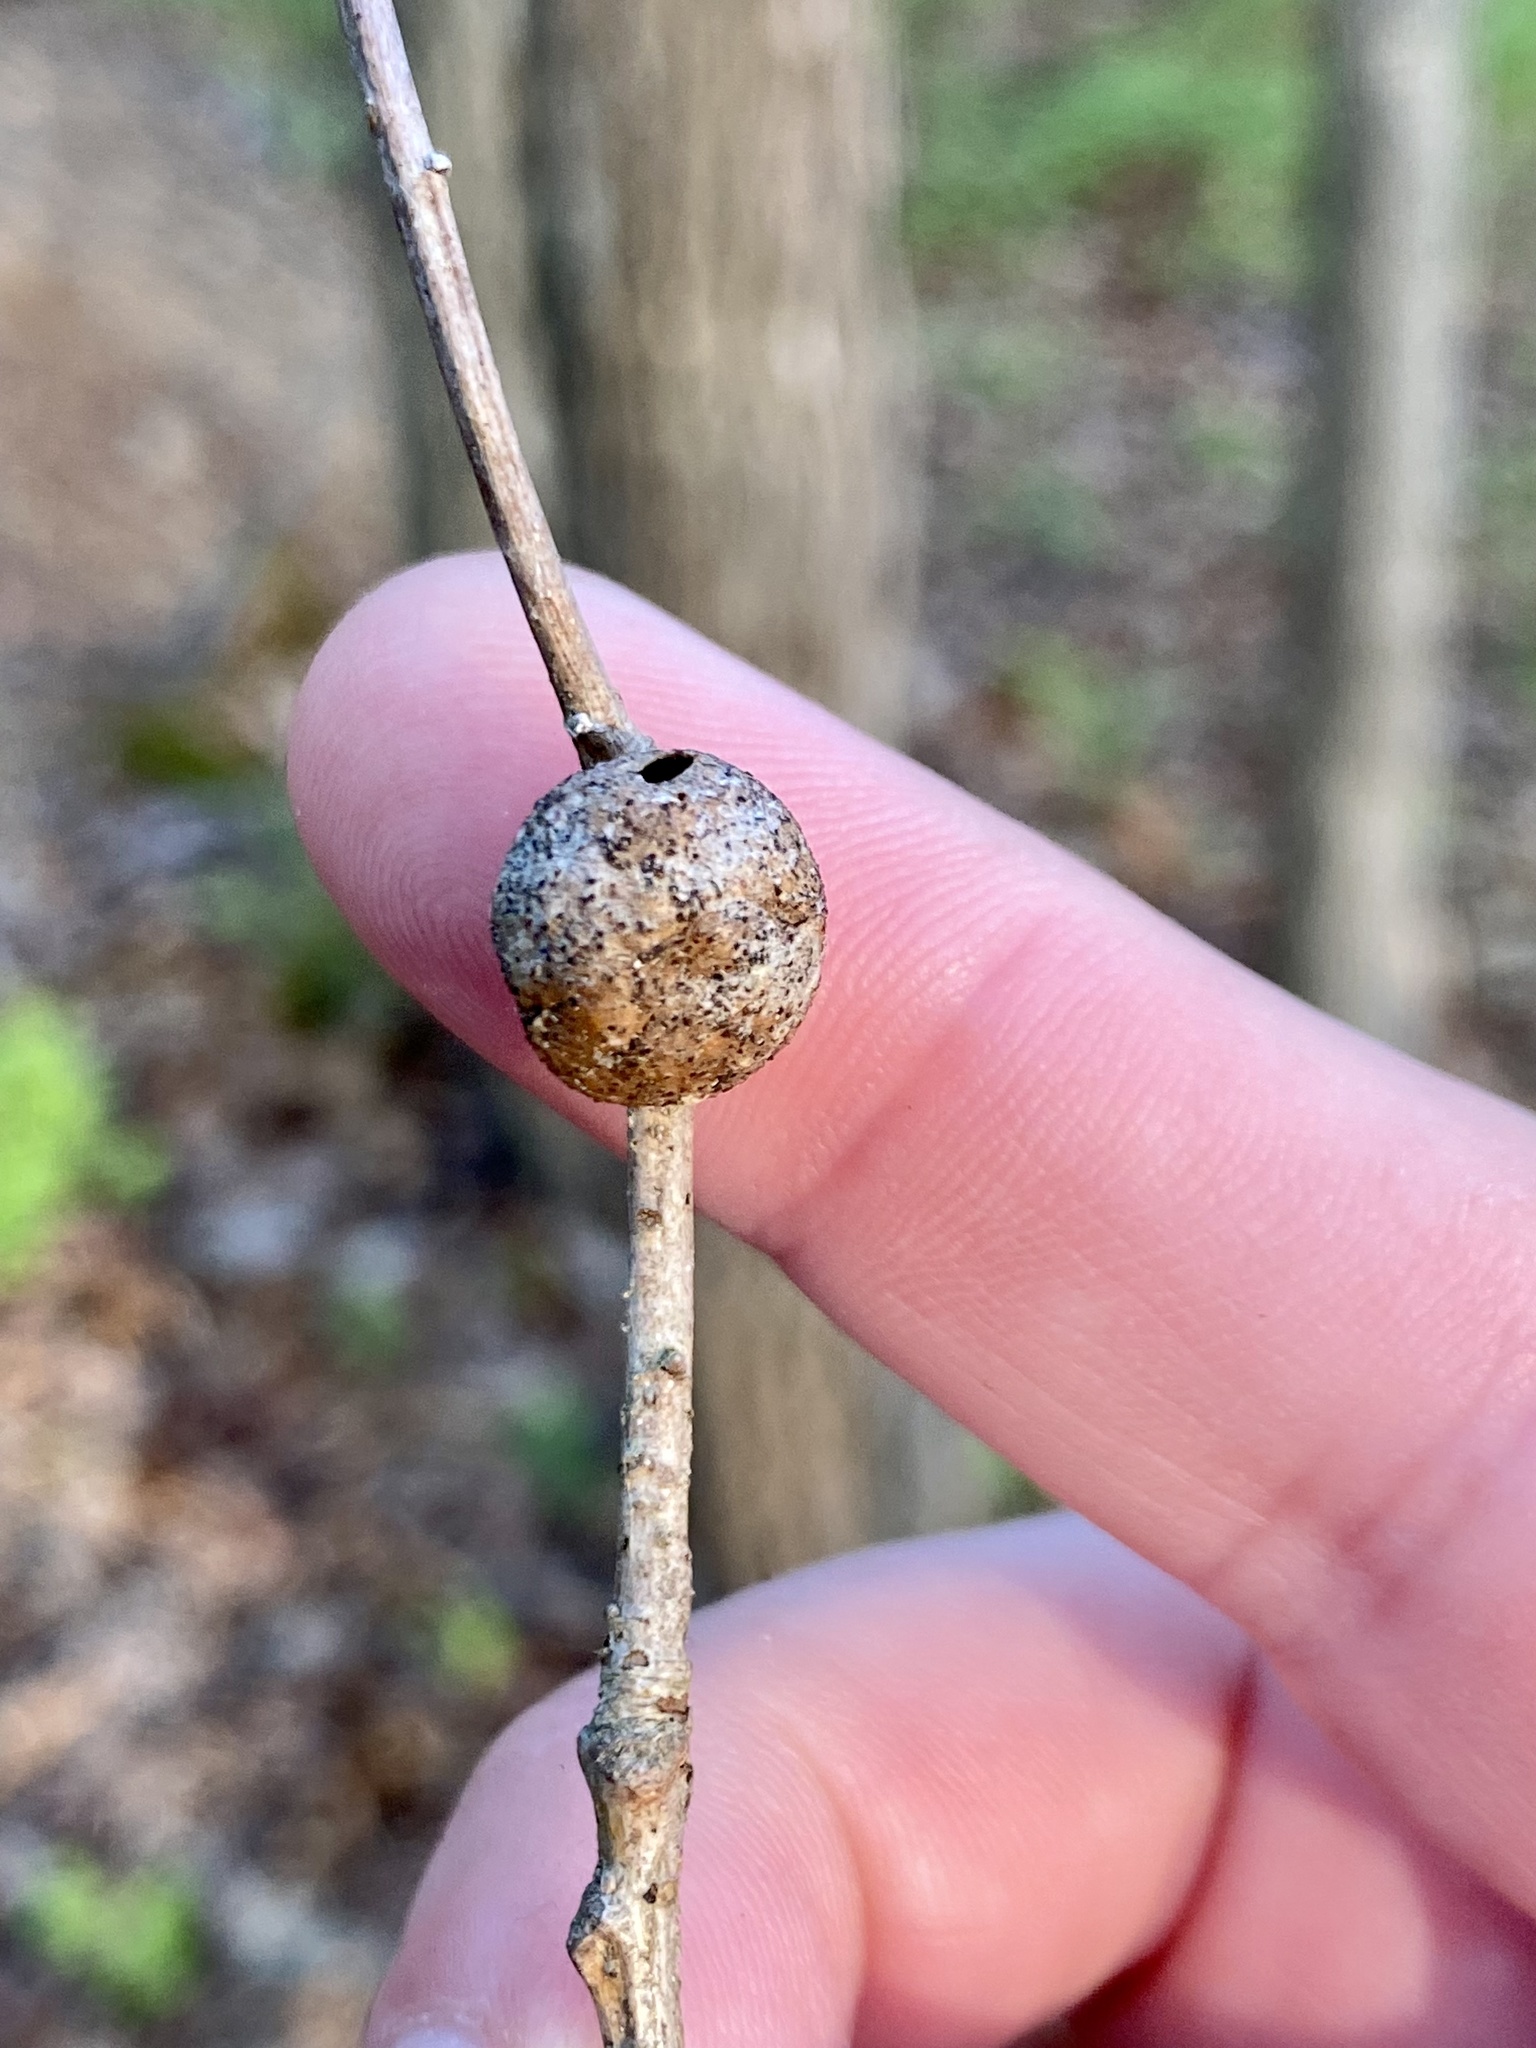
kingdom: Animalia
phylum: Arthropoda
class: Insecta
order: Hymenoptera
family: Cynipidae
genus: Disholcaspis
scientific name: Disholcaspis quercusglobulus
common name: Round bullet gall wasp
